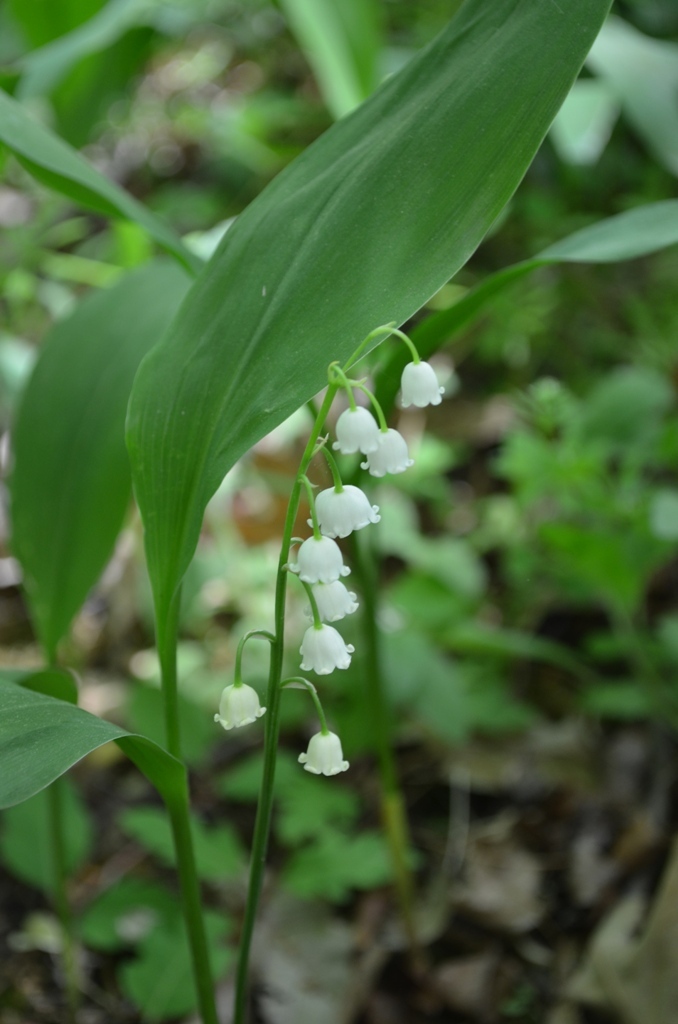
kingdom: Plantae
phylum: Tracheophyta
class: Liliopsida
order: Asparagales
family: Asparagaceae
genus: Convallaria
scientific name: Convallaria majalis
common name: Lily-of-the-valley
